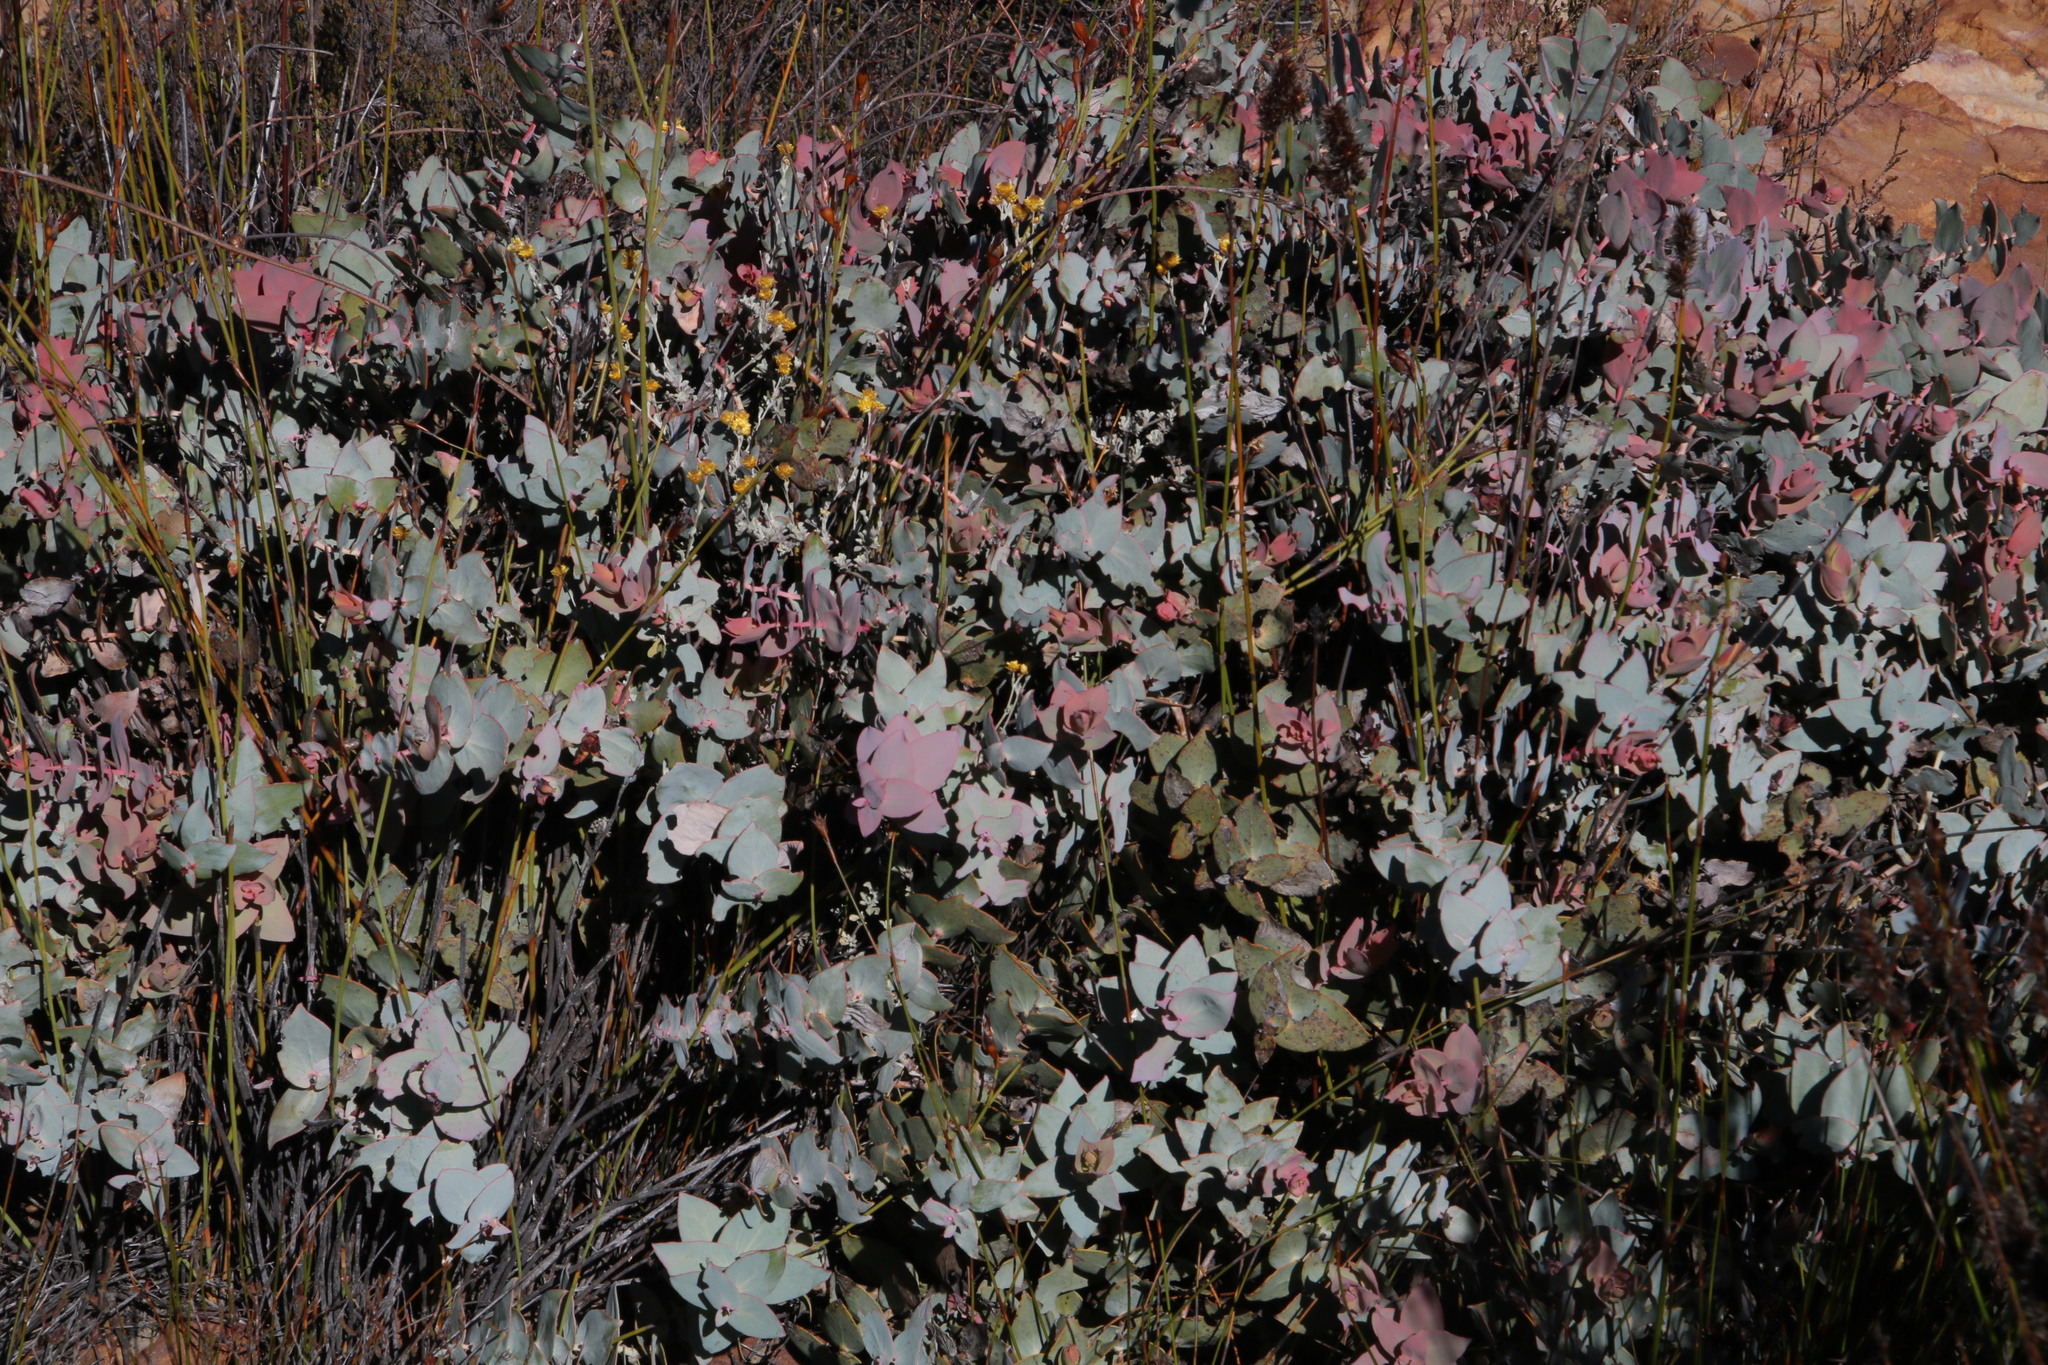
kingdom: Plantae
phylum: Tracheophyta
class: Magnoliopsida
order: Proteales
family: Proteaceae
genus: Protea
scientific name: Protea amplexicaulis
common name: Clasping-leaf sugarbush
